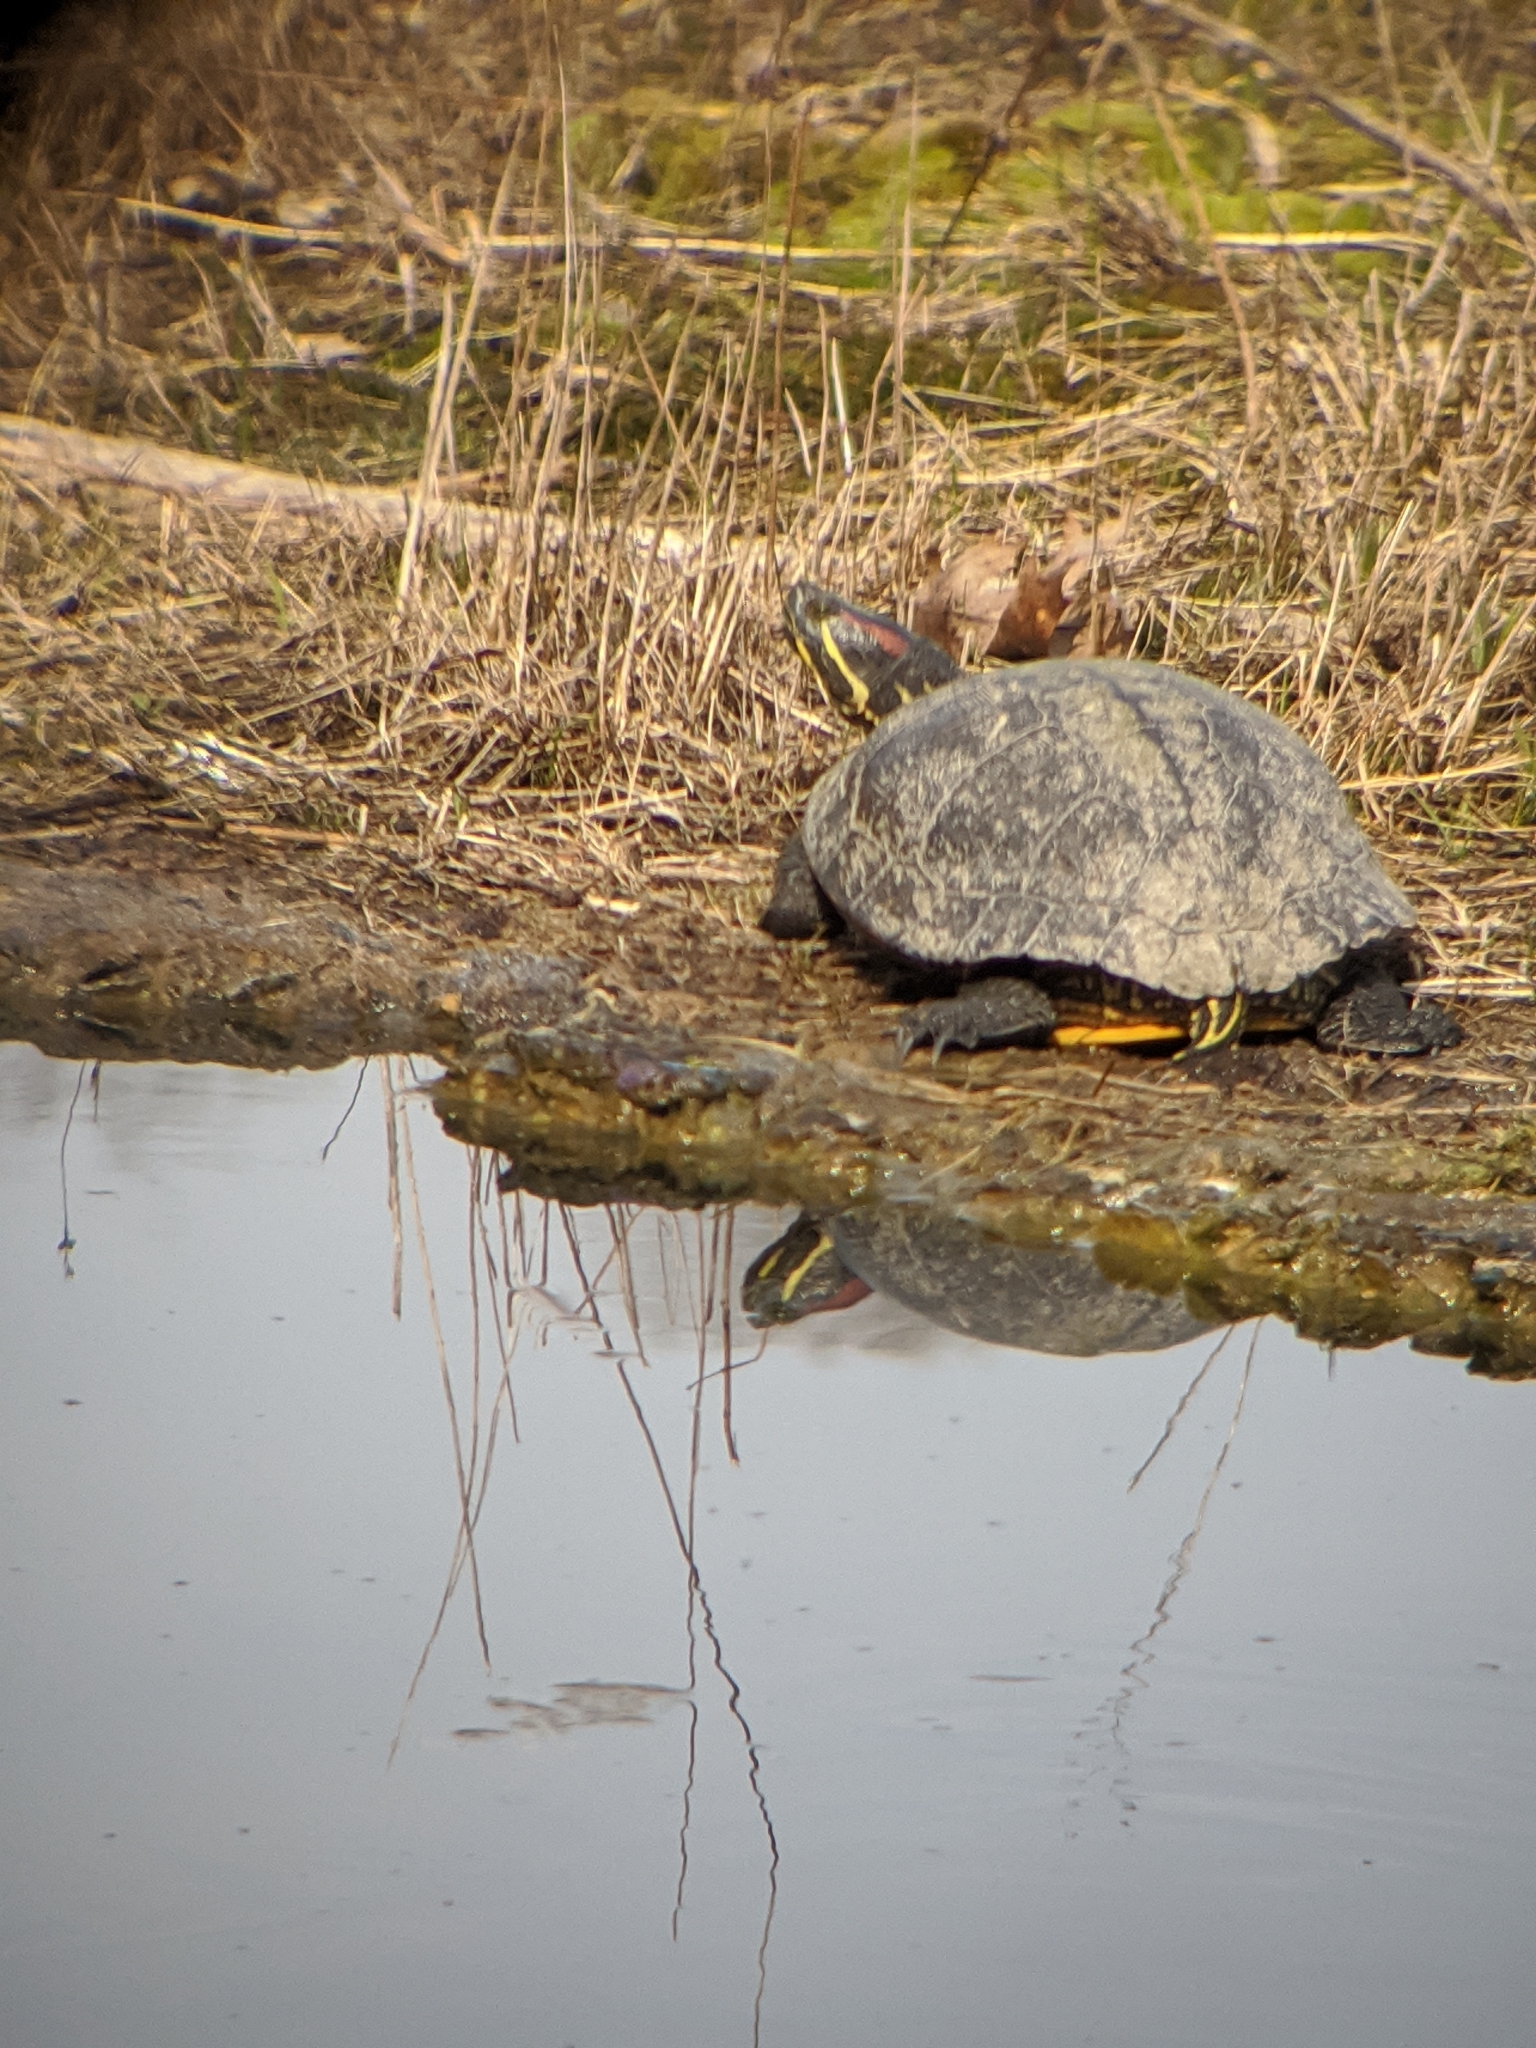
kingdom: Animalia
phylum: Chordata
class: Testudines
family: Emydidae
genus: Trachemys
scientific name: Trachemys scripta
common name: Slider
